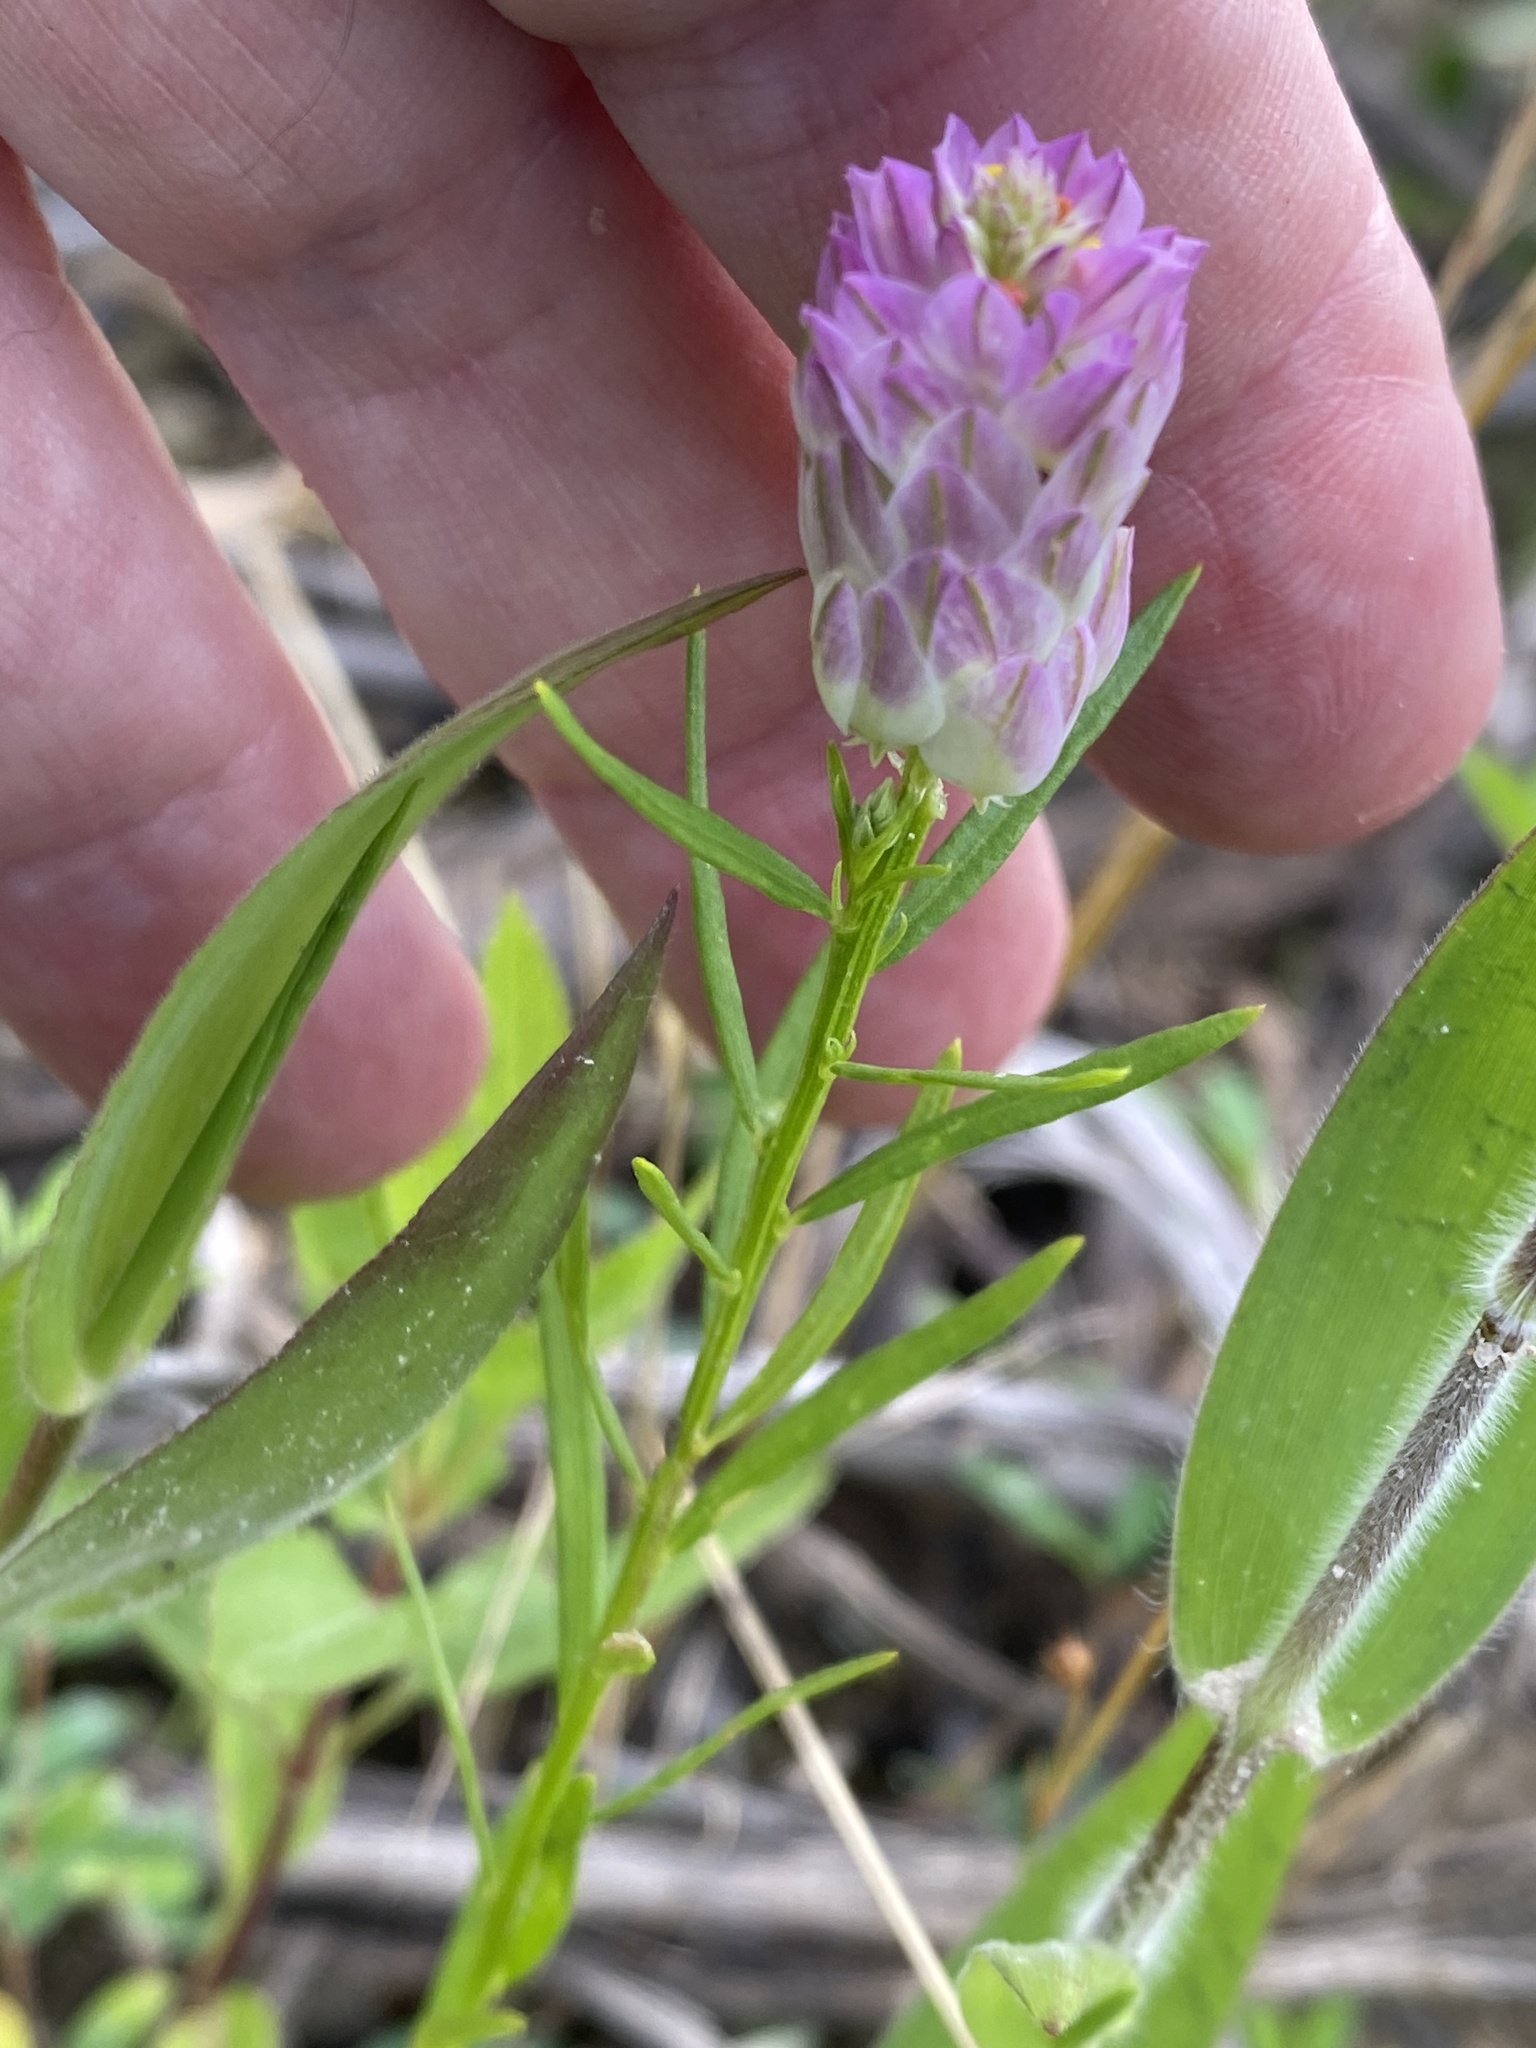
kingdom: Plantae
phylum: Tracheophyta
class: Magnoliopsida
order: Fabales
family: Polygalaceae
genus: Polygala
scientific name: Polygala sanguinea
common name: Blood milkwort
